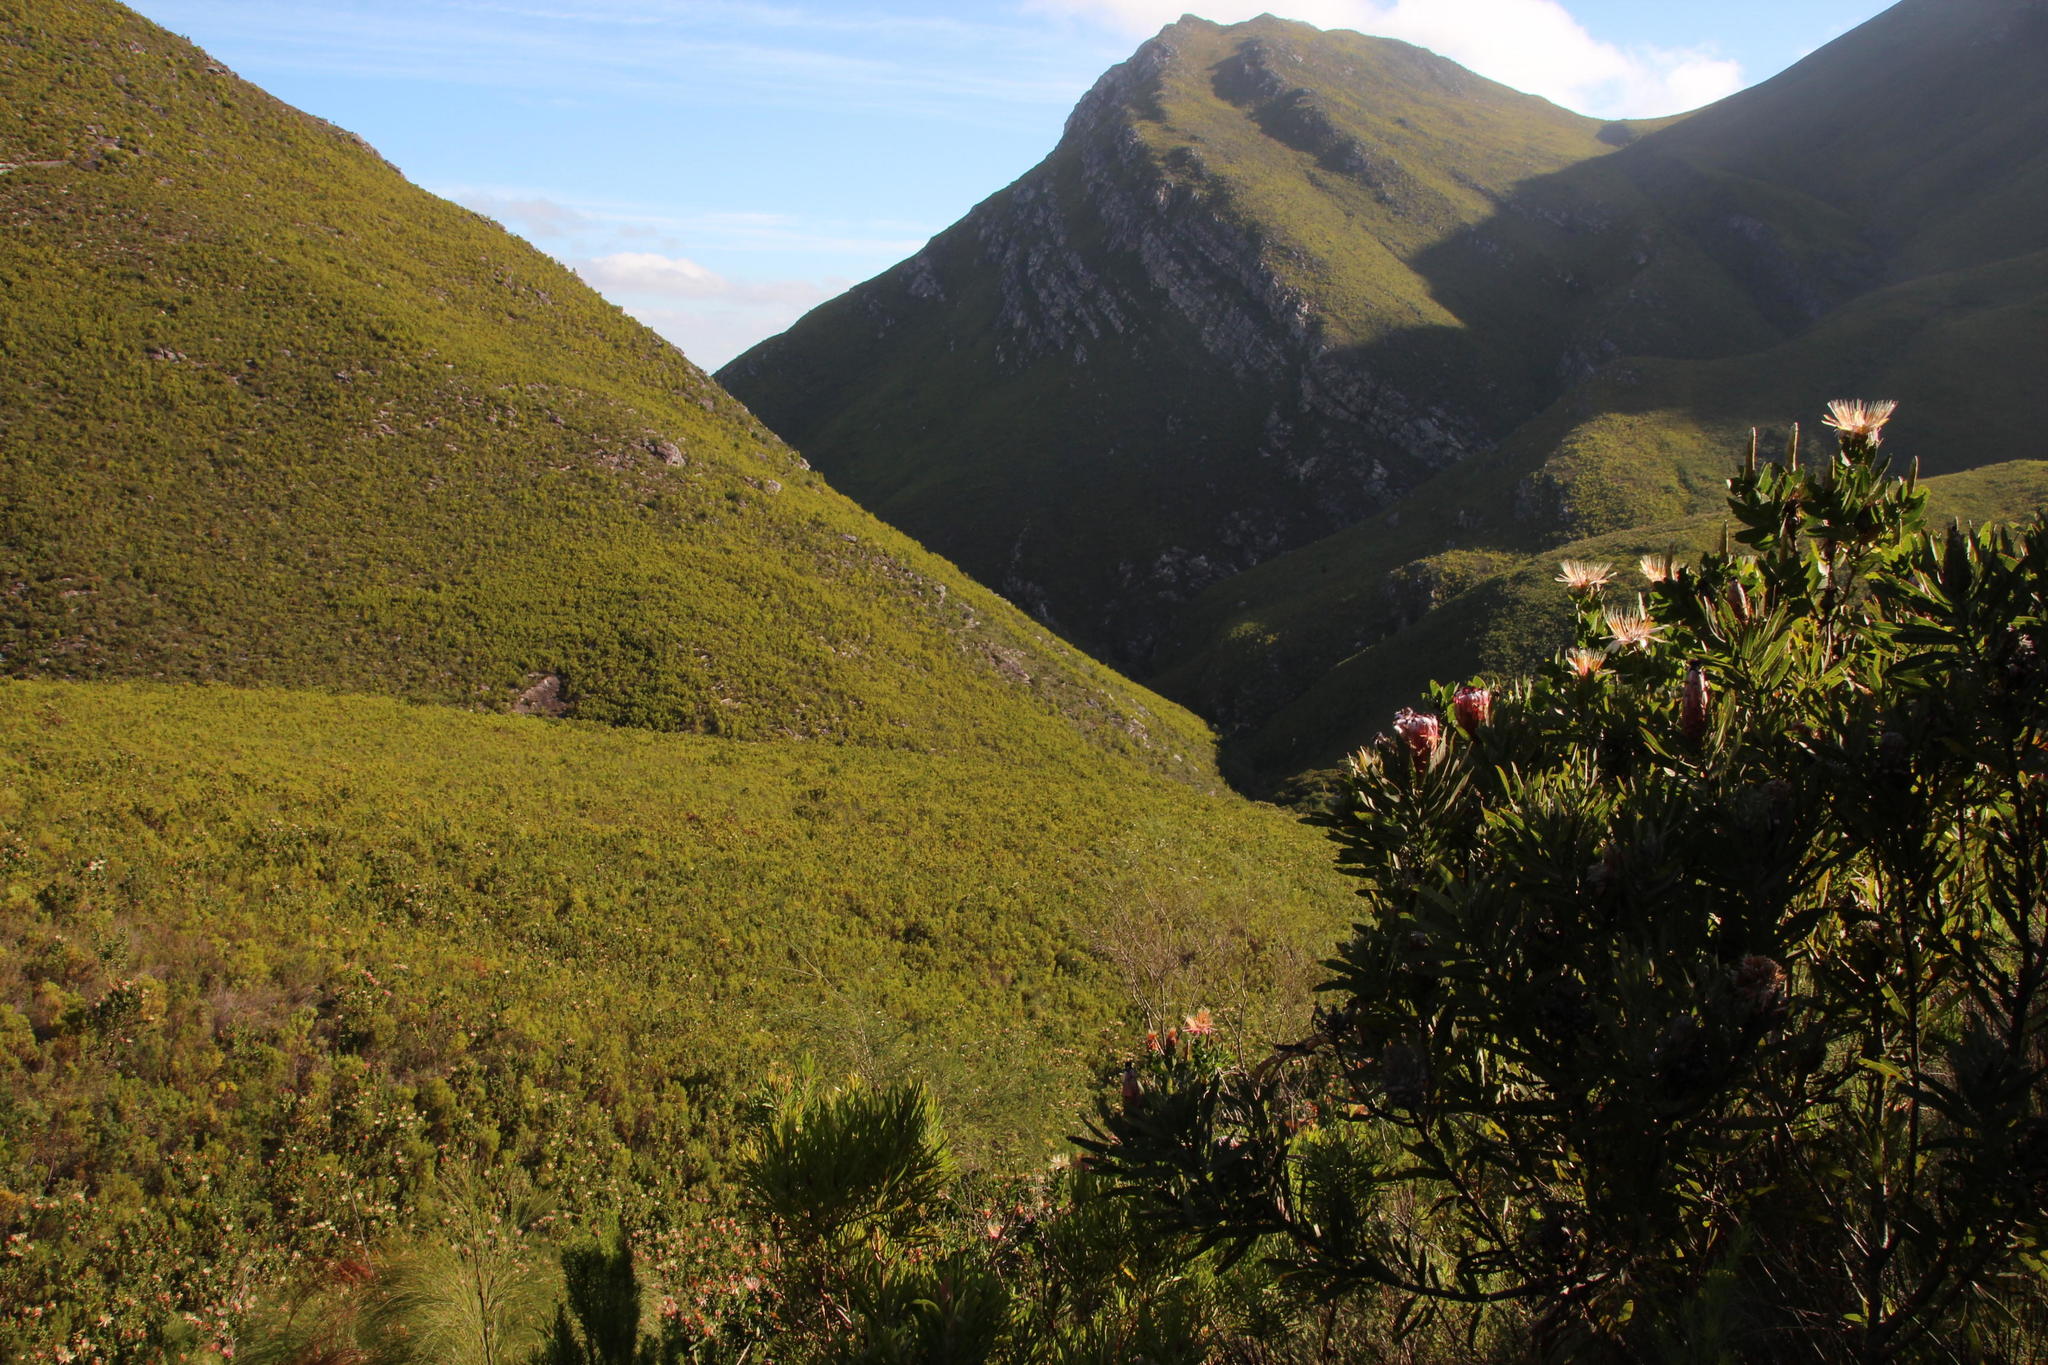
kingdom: Plantae
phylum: Tracheophyta
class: Magnoliopsida
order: Proteales
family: Proteaceae
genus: Protea
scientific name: Protea aurea
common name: Shuttlecock sugarbush
